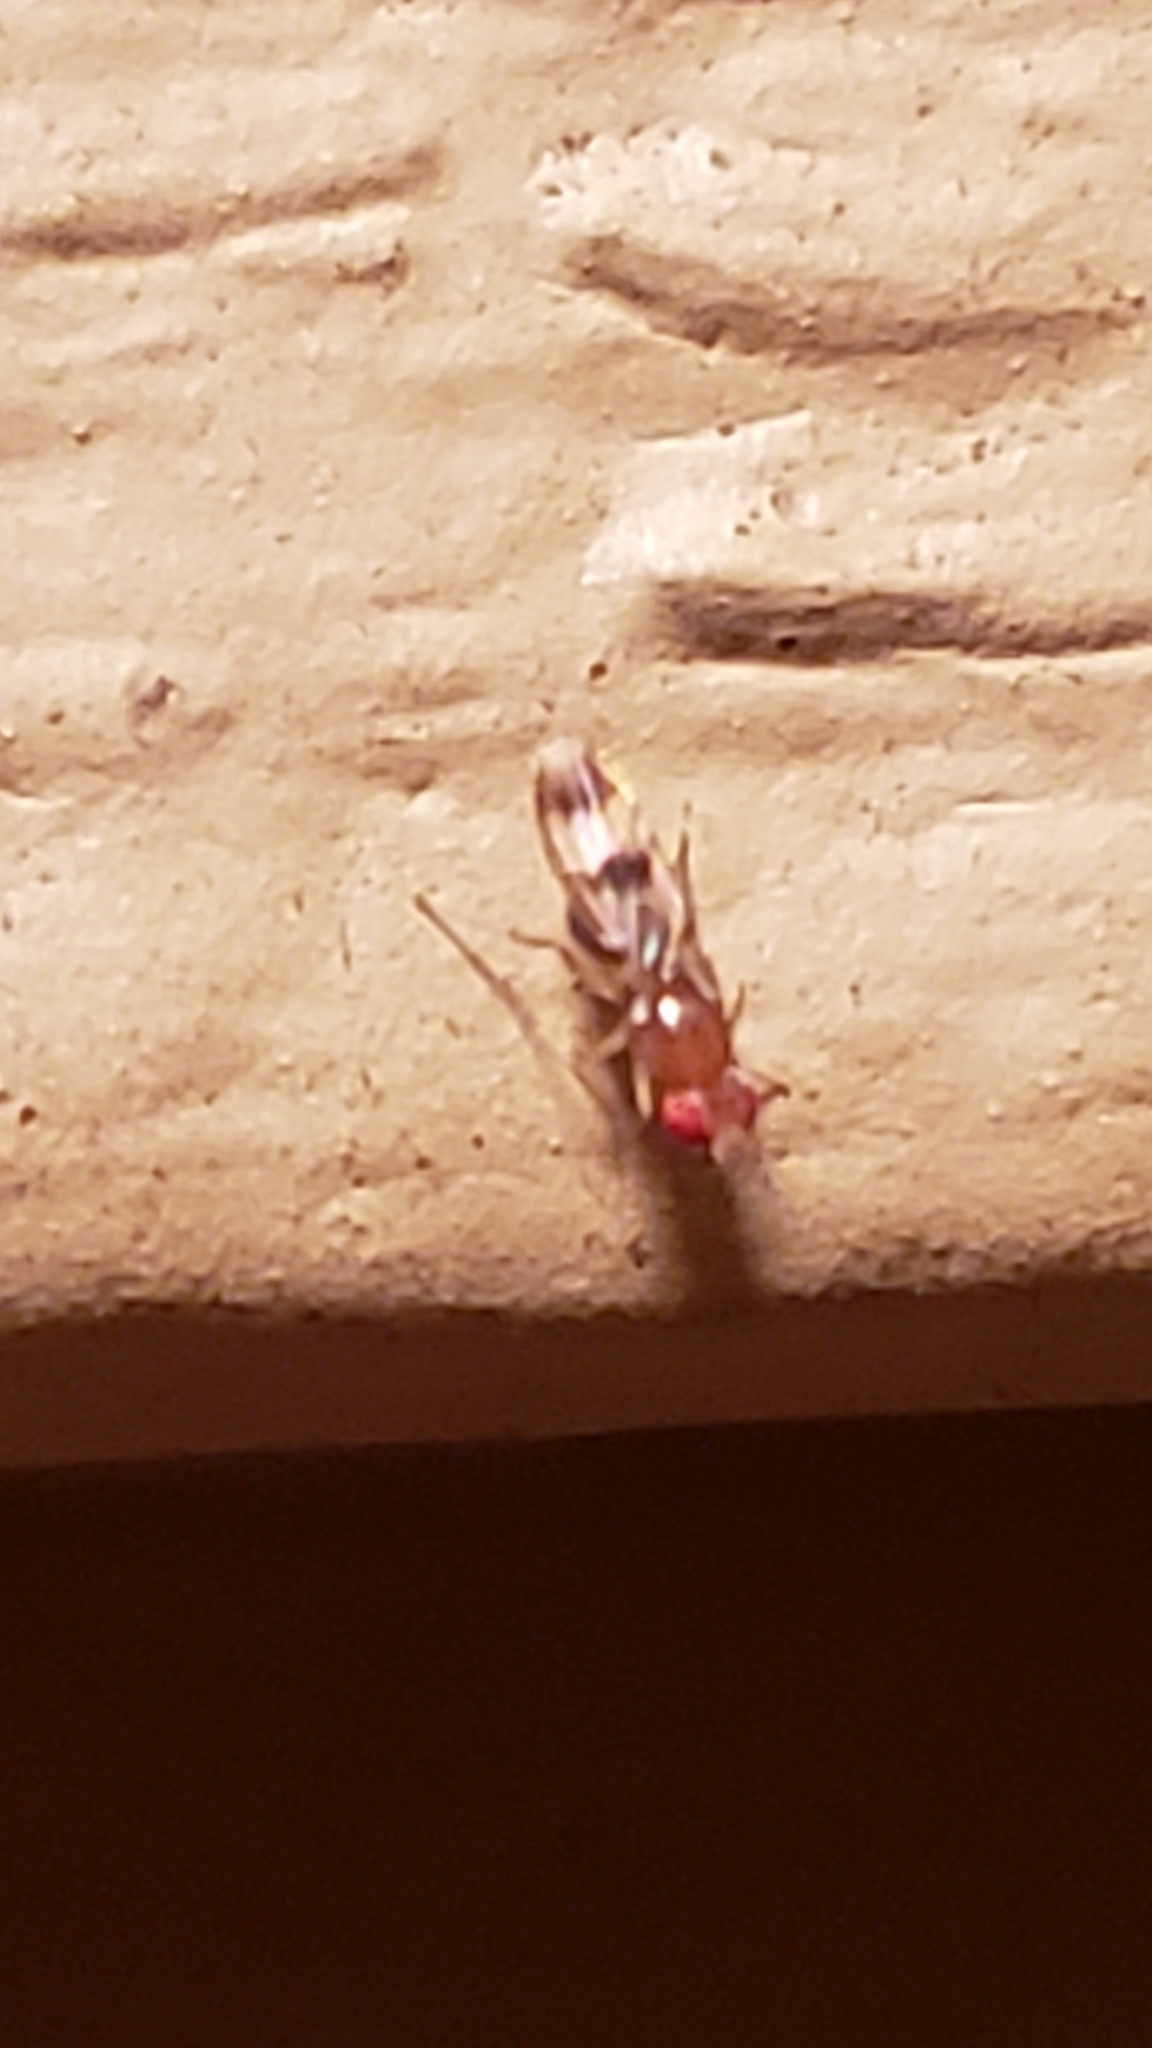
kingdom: Animalia
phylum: Arthropoda
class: Insecta
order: Diptera
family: Drosophilidae
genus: Chymomyza
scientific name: Chymomyza amoena
